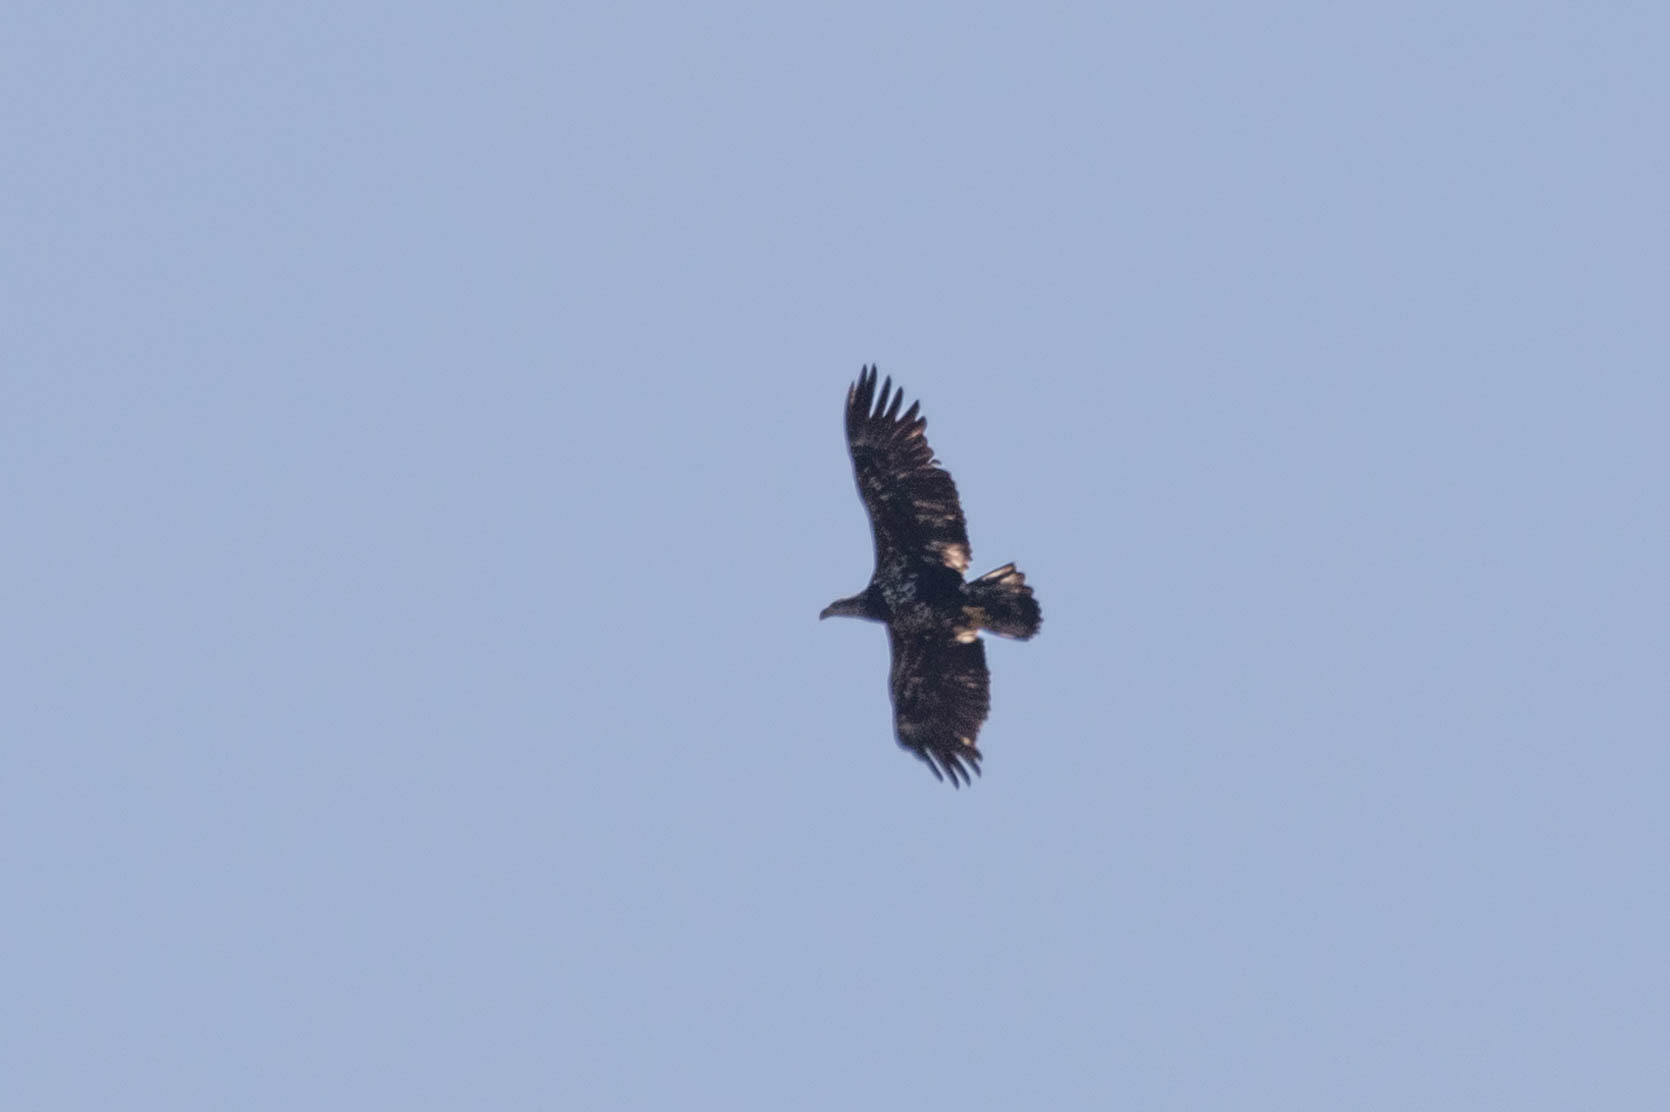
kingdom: Animalia
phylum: Chordata
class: Aves
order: Accipitriformes
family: Accipitridae
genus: Haliaeetus
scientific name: Haliaeetus leucocephalus
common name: Bald eagle
